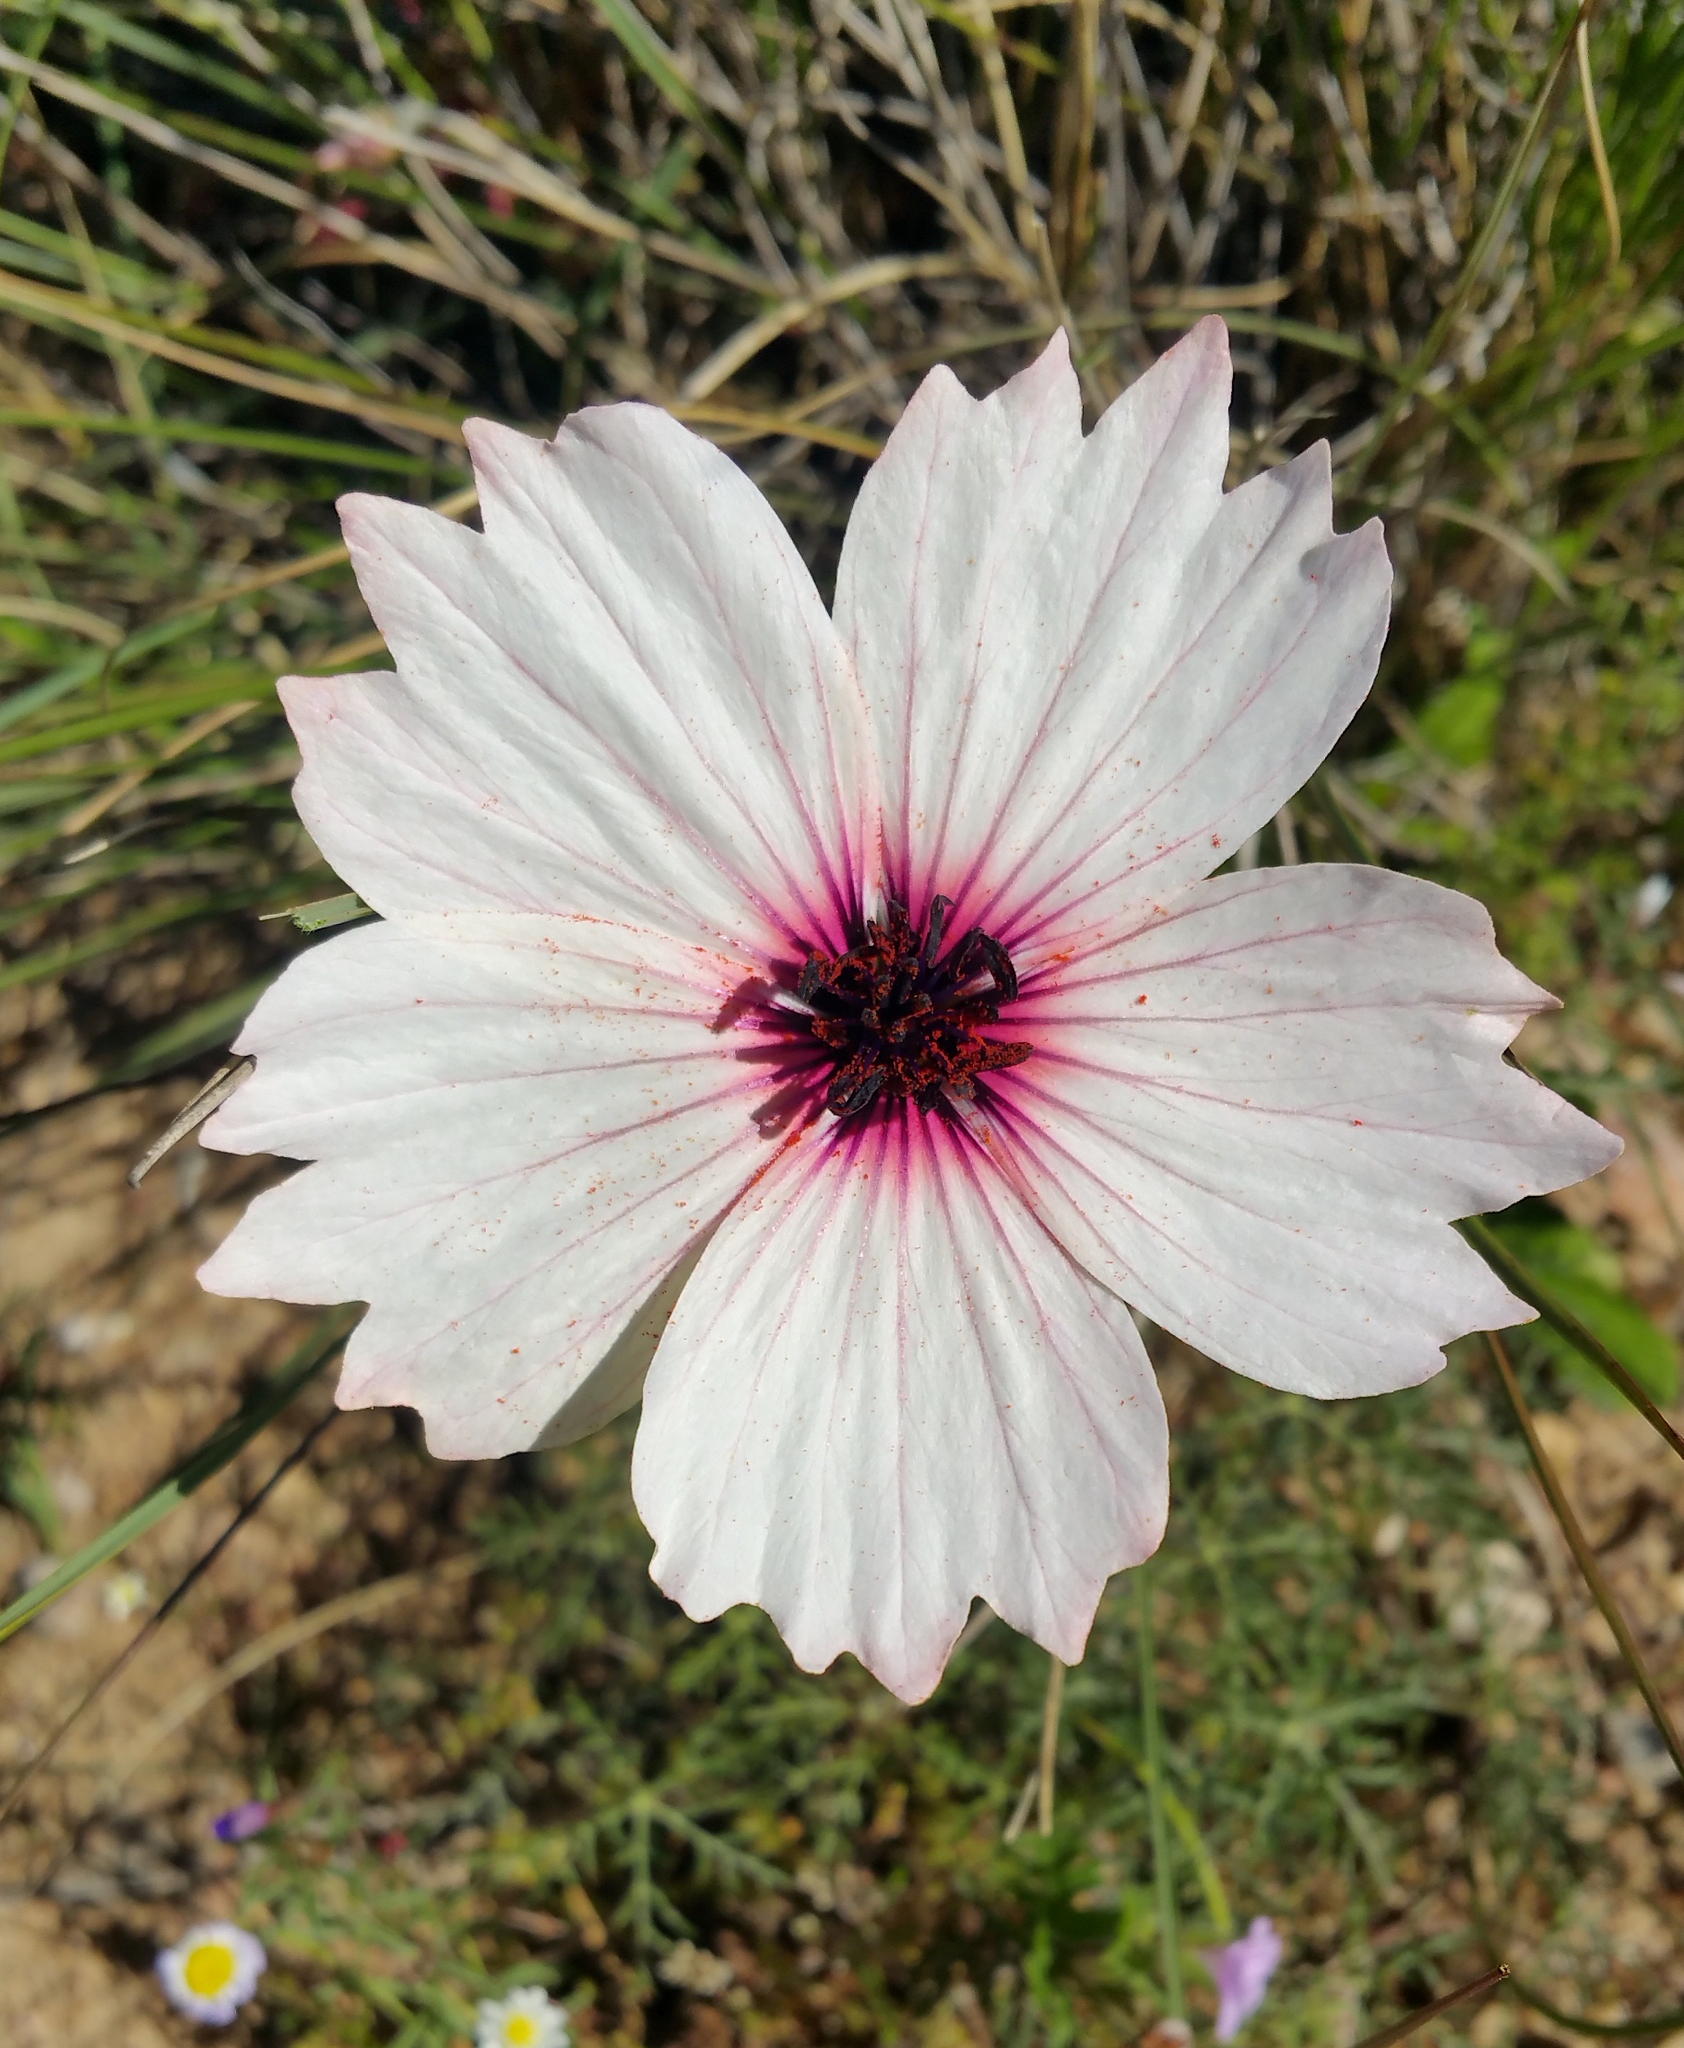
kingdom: Plantae
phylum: Tracheophyta
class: Magnoliopsida
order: Geraniales
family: Geraniaceae
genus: Monsonia
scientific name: Monsonia speciosa
